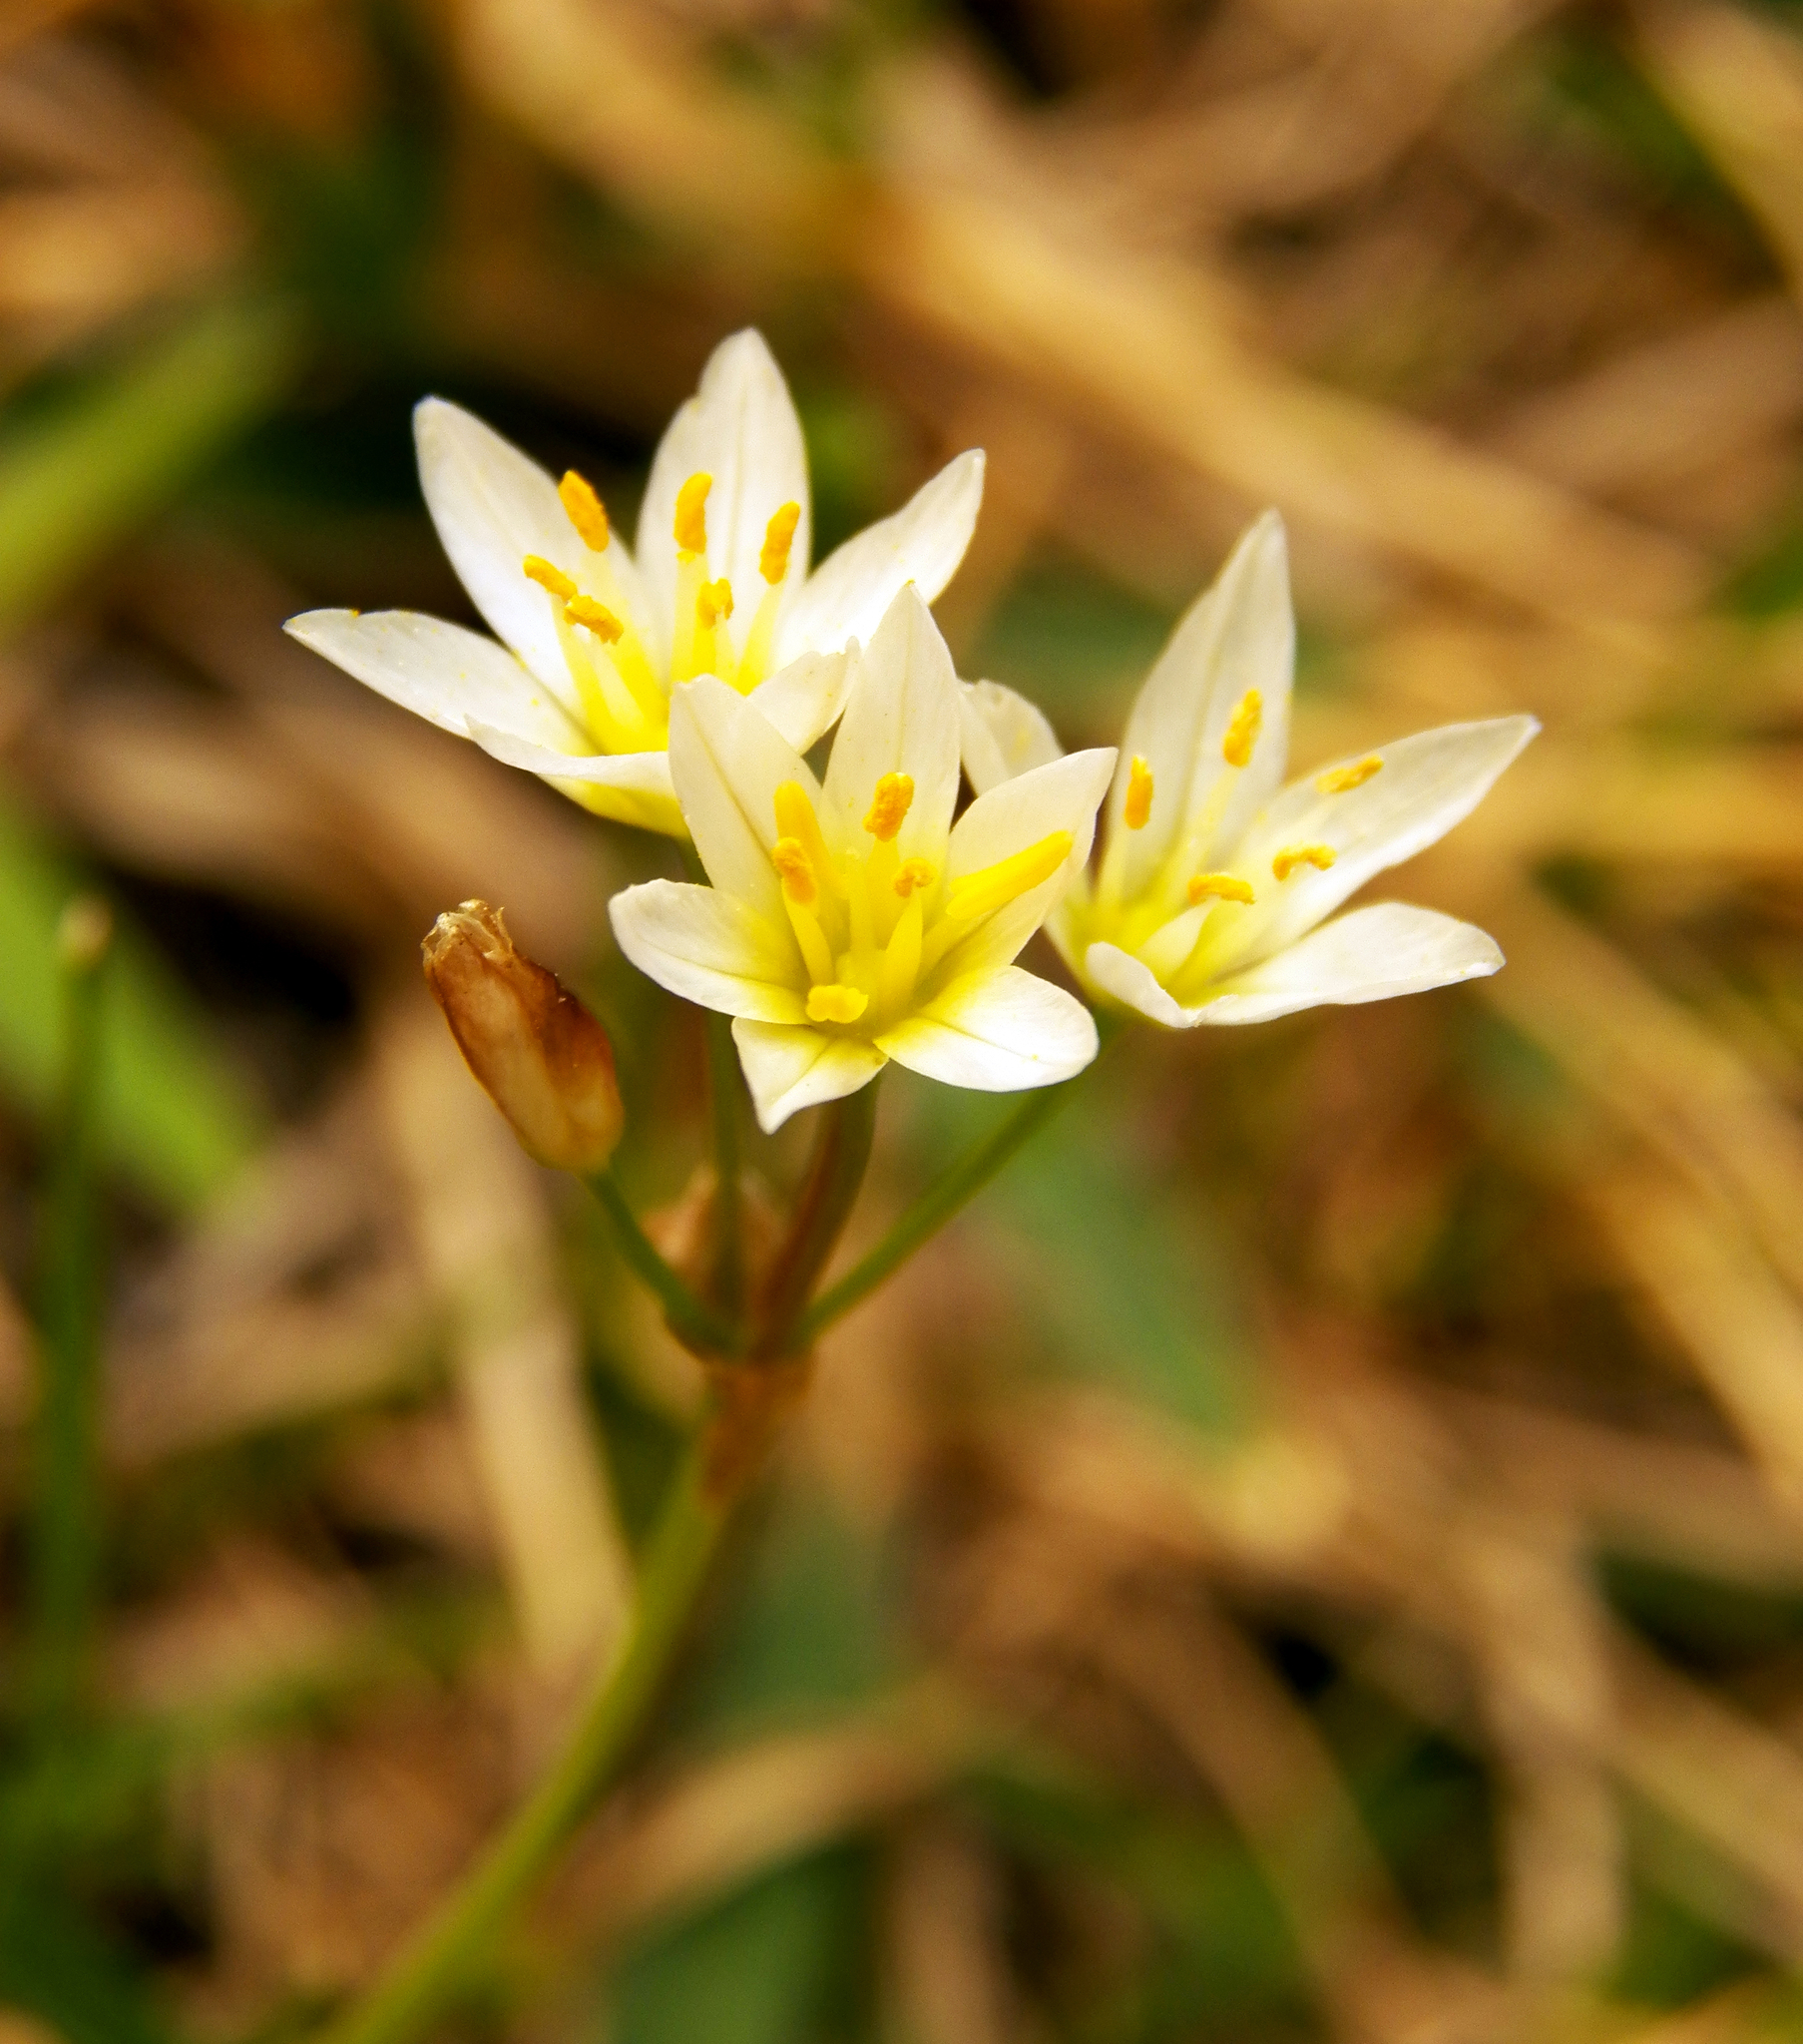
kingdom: Plantae
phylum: Tracheophyta
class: Liliopsida
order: Asparagales
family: Amaryllidaceae
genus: Nothoscordum
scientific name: Nothoscordum bivalve
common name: Crow-poison
